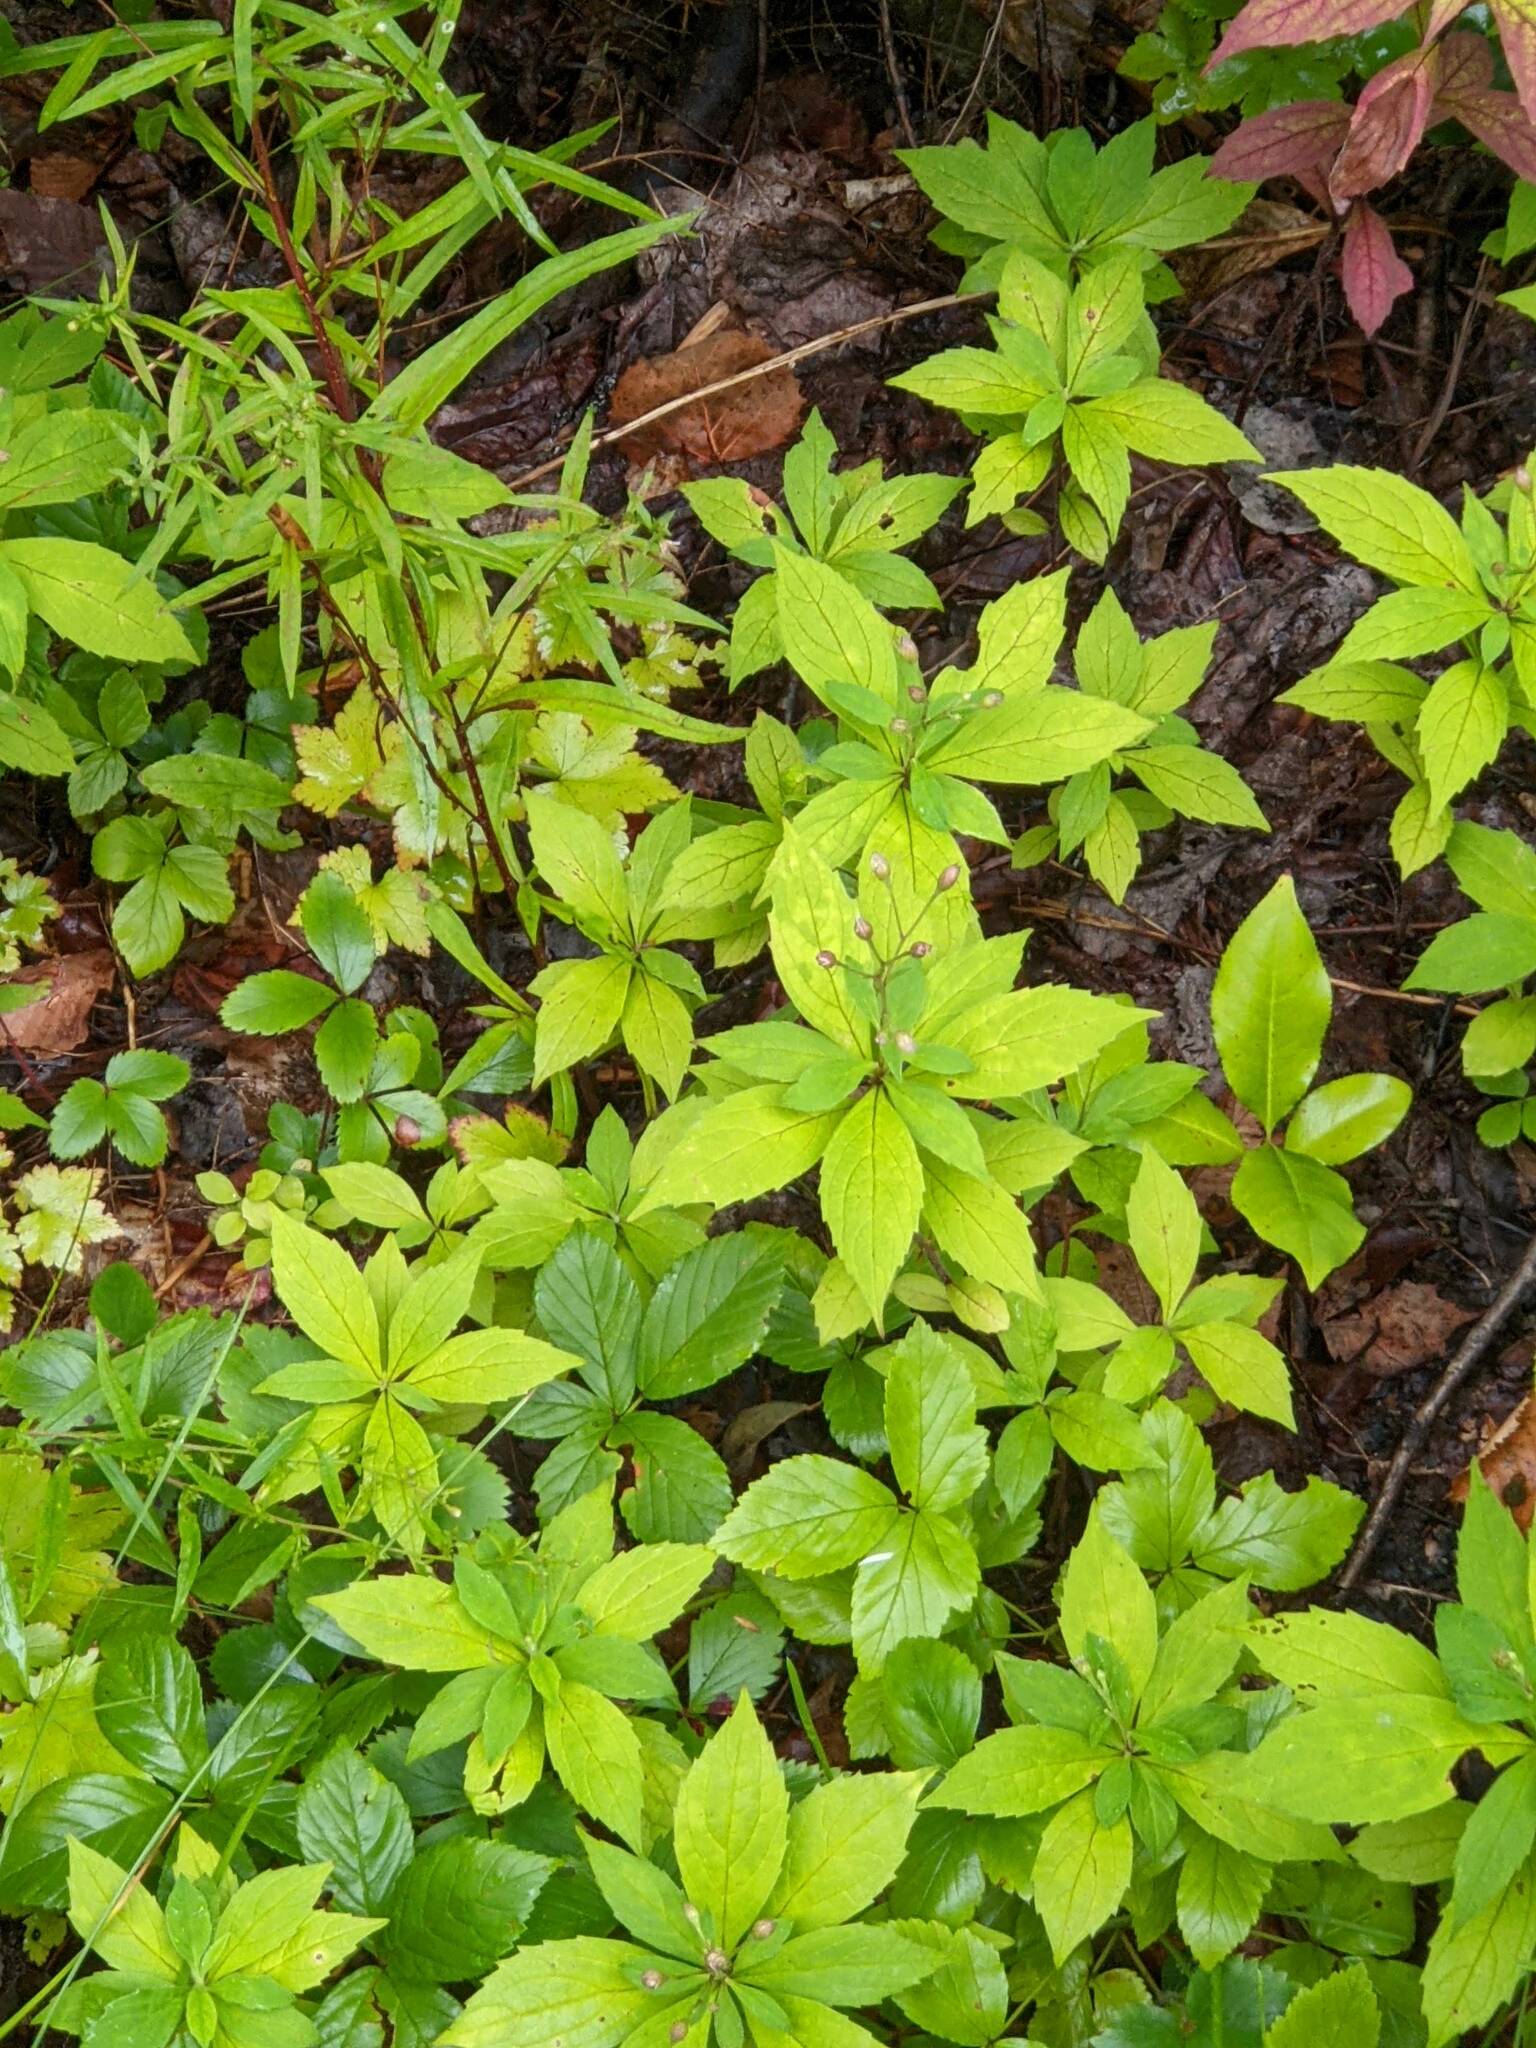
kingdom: Plantae
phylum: Tracheophyta
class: Magnoliopsida
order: Asterales
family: Asteraceae
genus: Oclemena
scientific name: Oclemena acuminata
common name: Mountain aster
